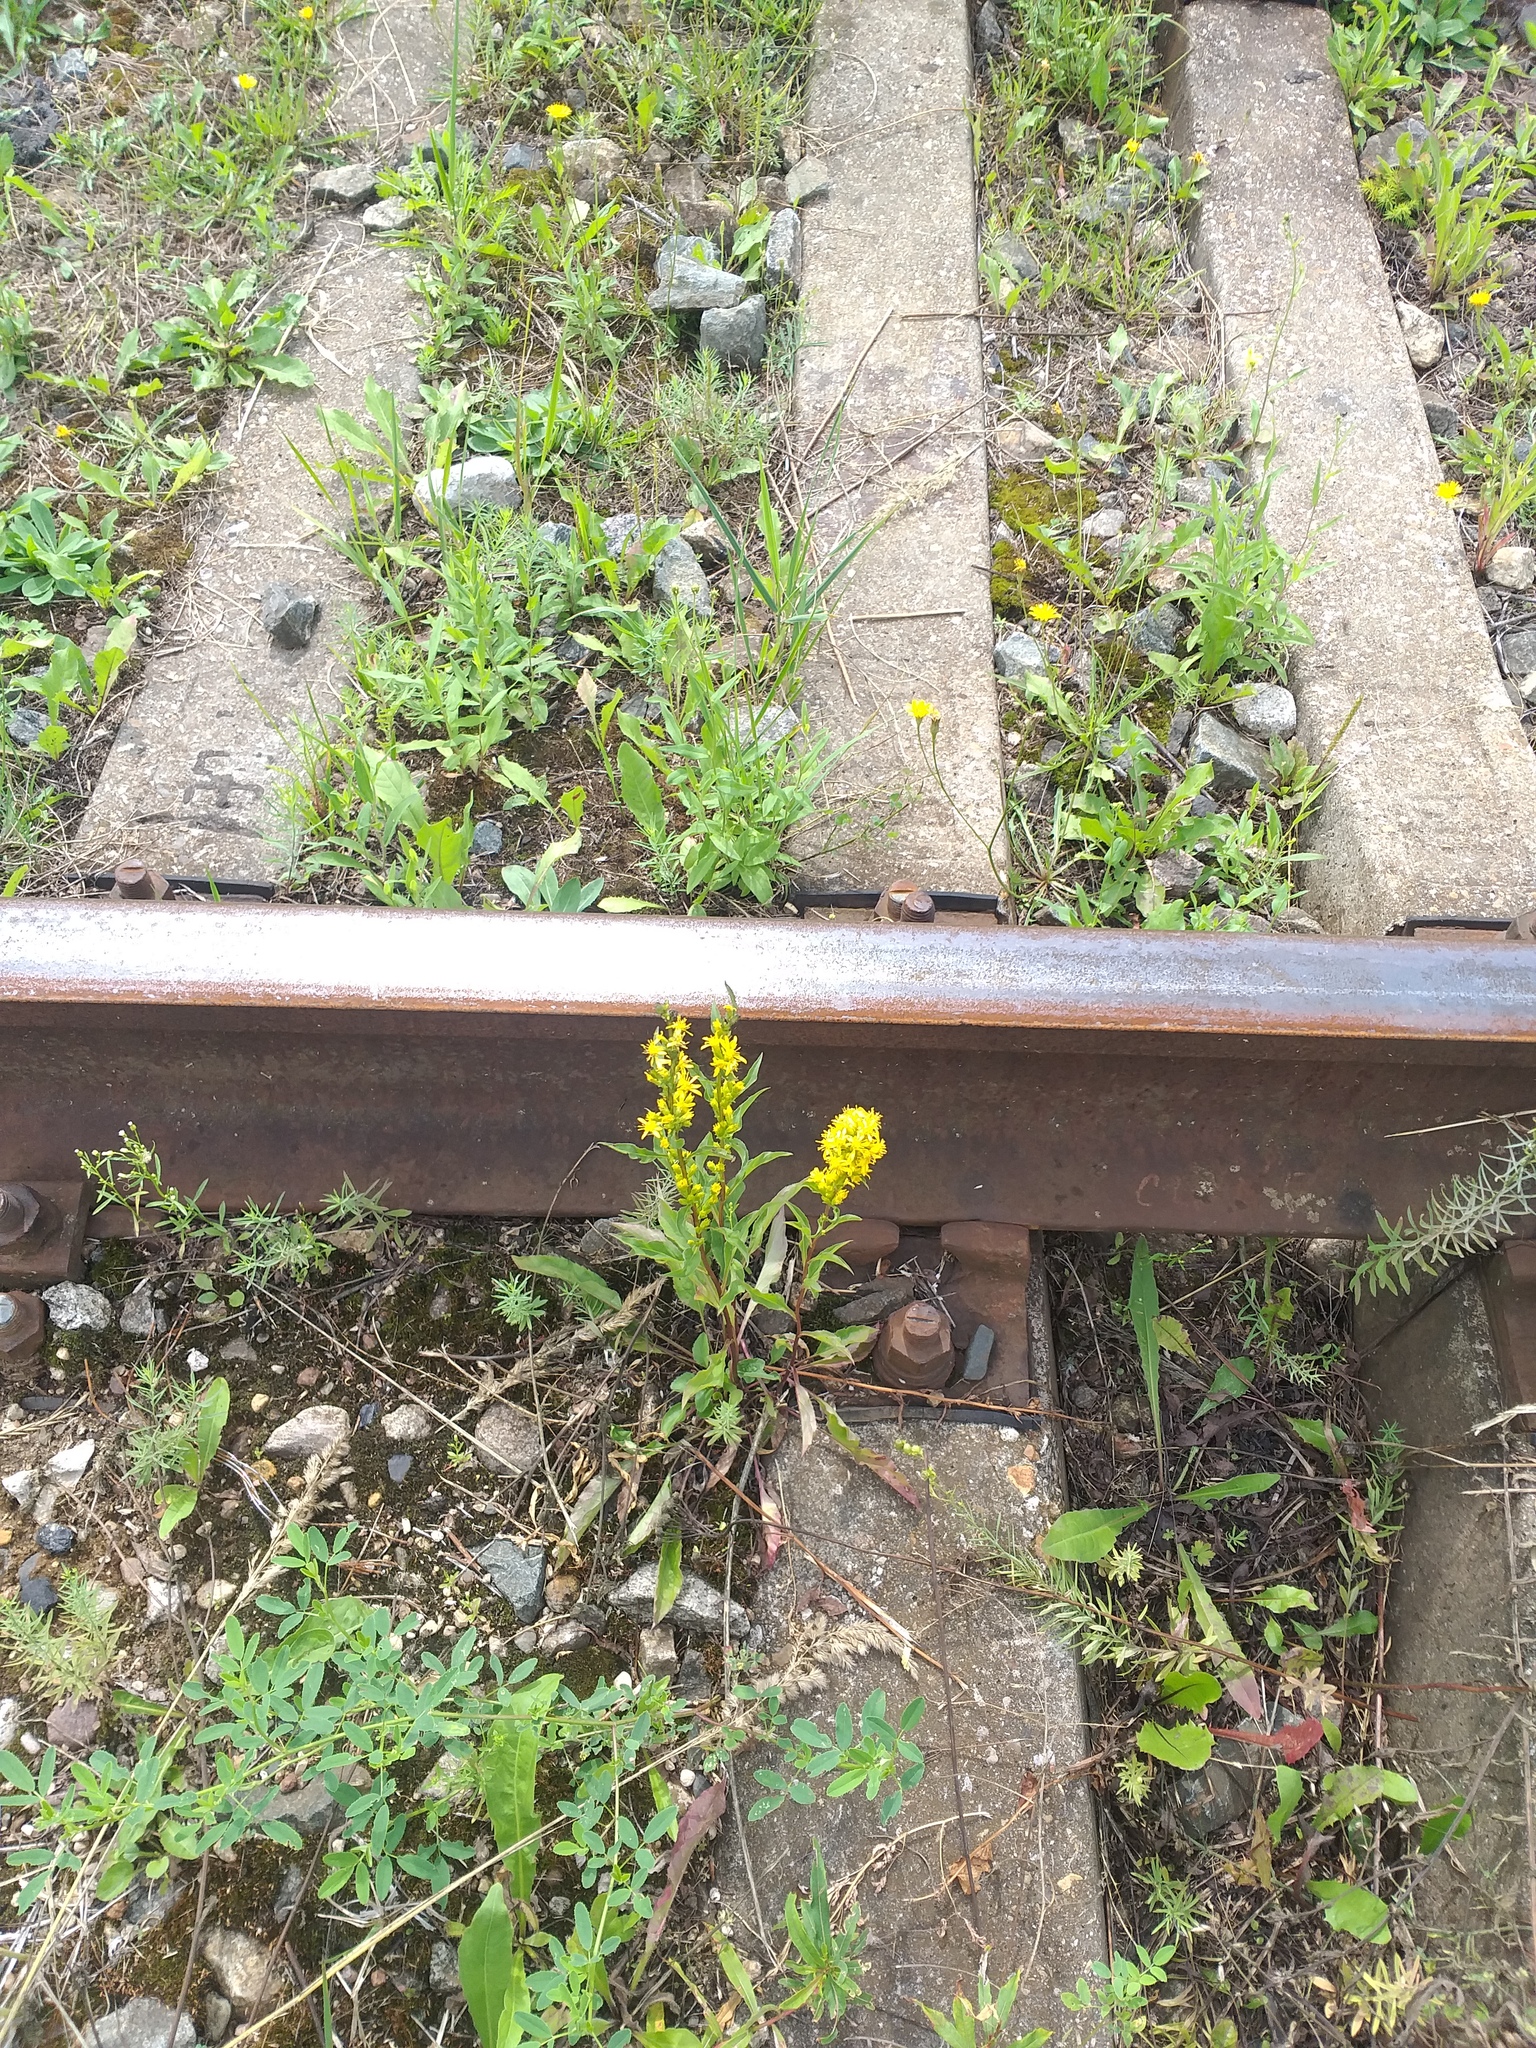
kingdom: Plantae
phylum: Tracheophyta
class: Magnoliopsida
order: Asterales
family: Asteraceae
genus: Solidago
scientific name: Solidago virgaurea
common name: Goldenrod
